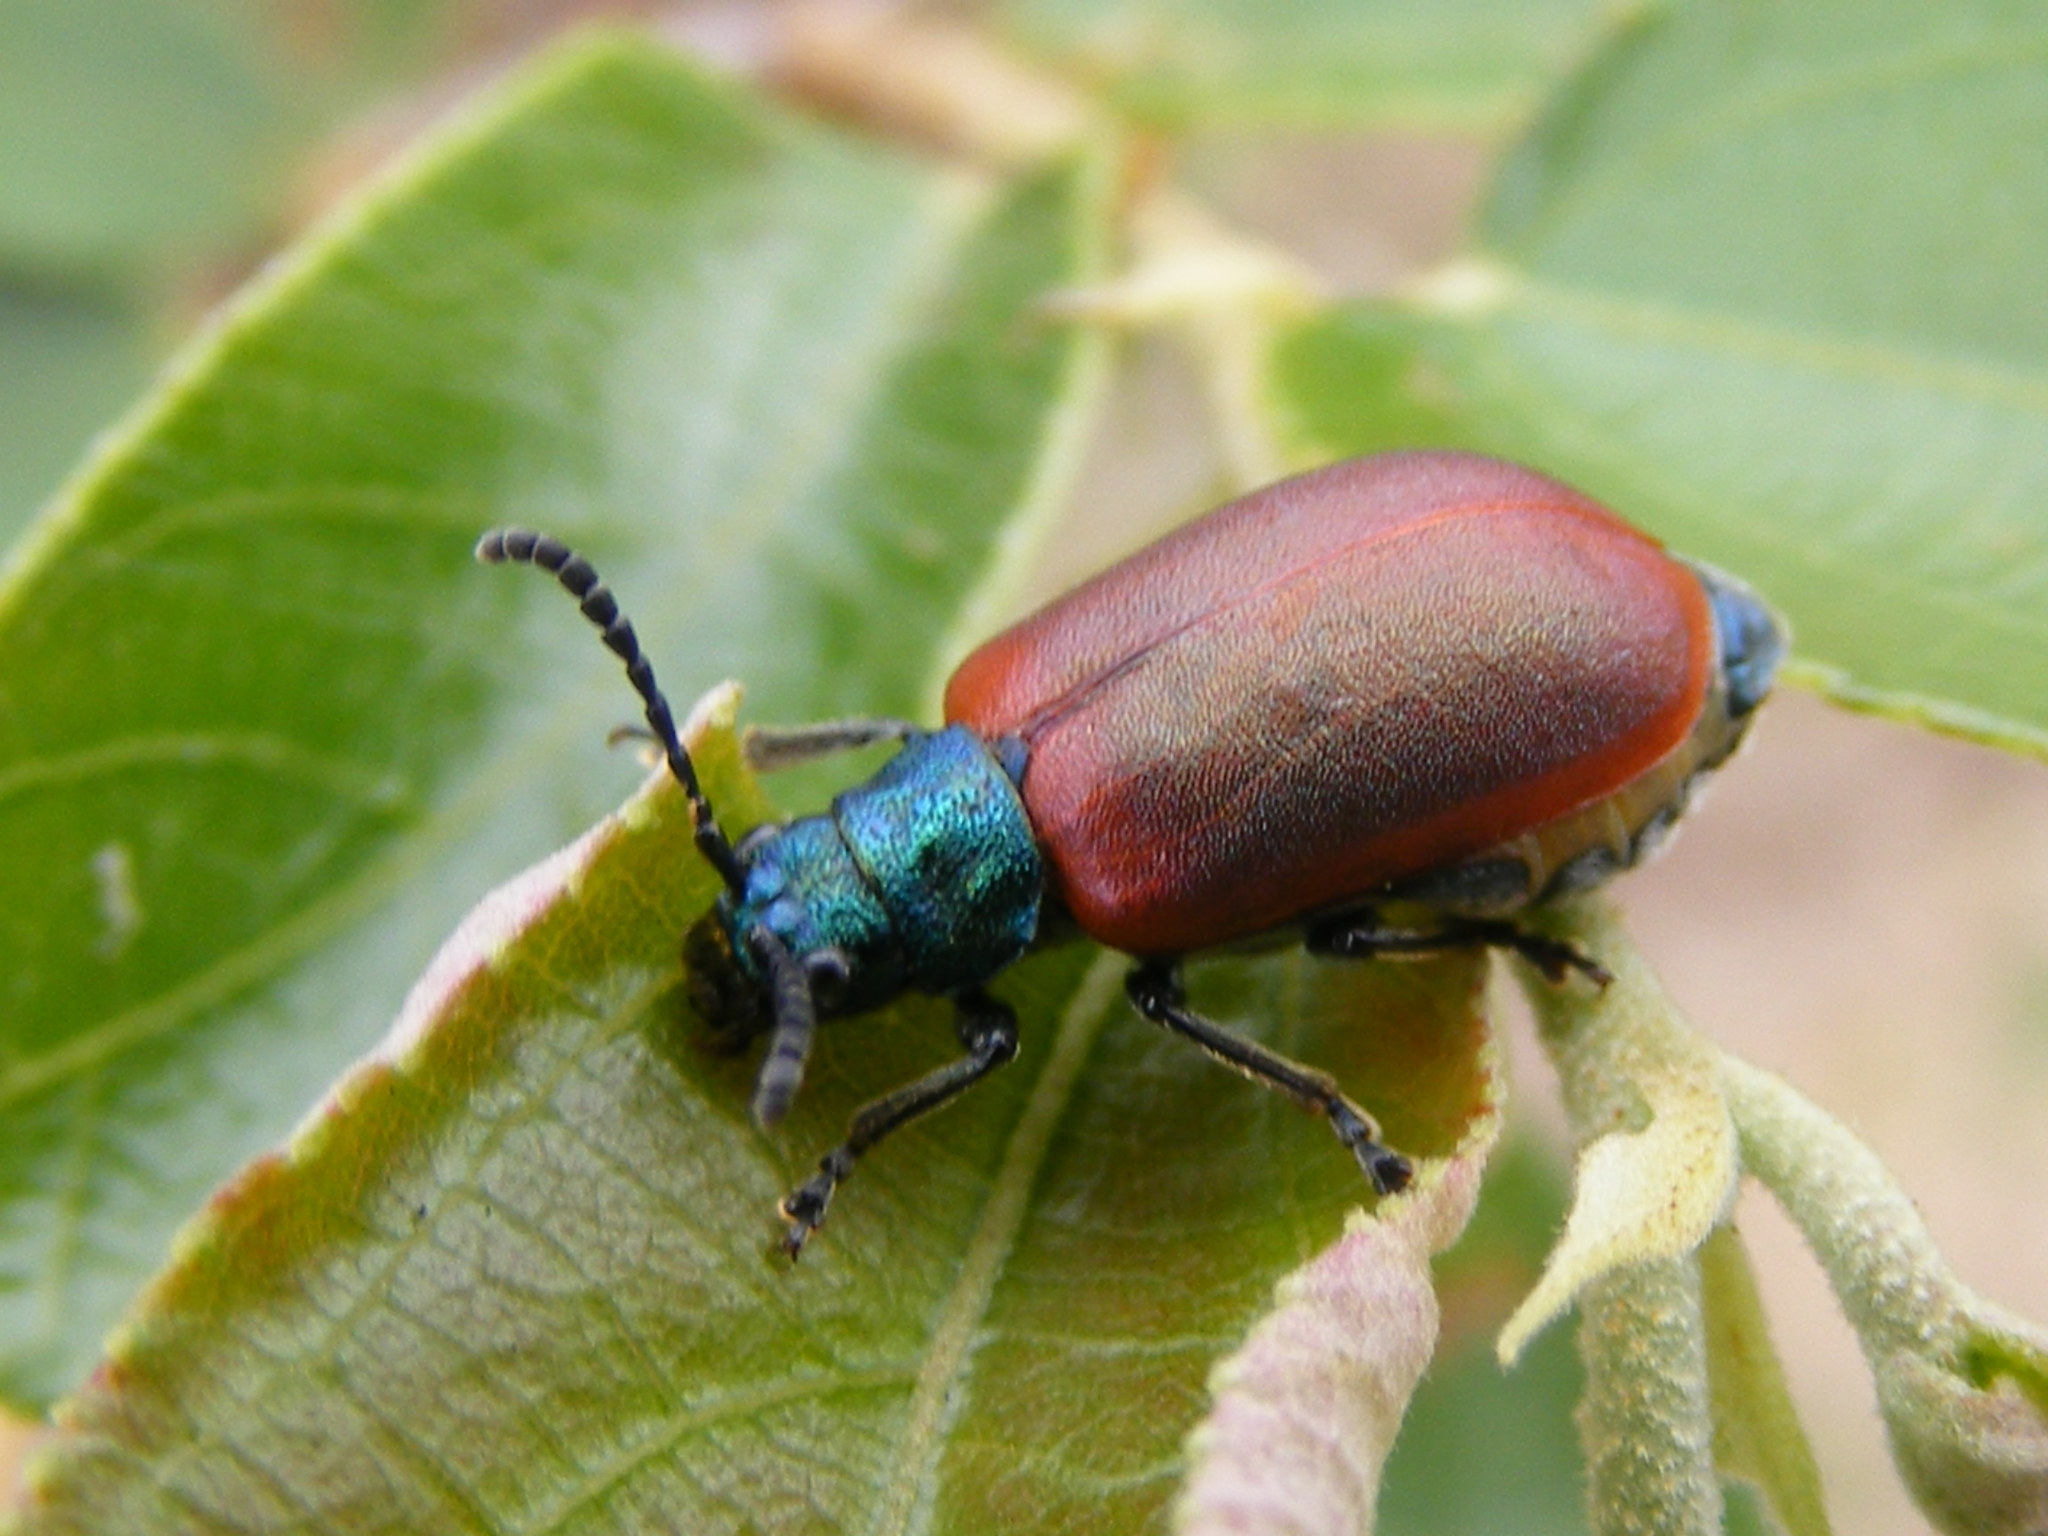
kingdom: Animalia
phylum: Arthropoda
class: Insecta
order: Coleoptera
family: Chrysomelidae
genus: Porphytoma
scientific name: Porphytoma
